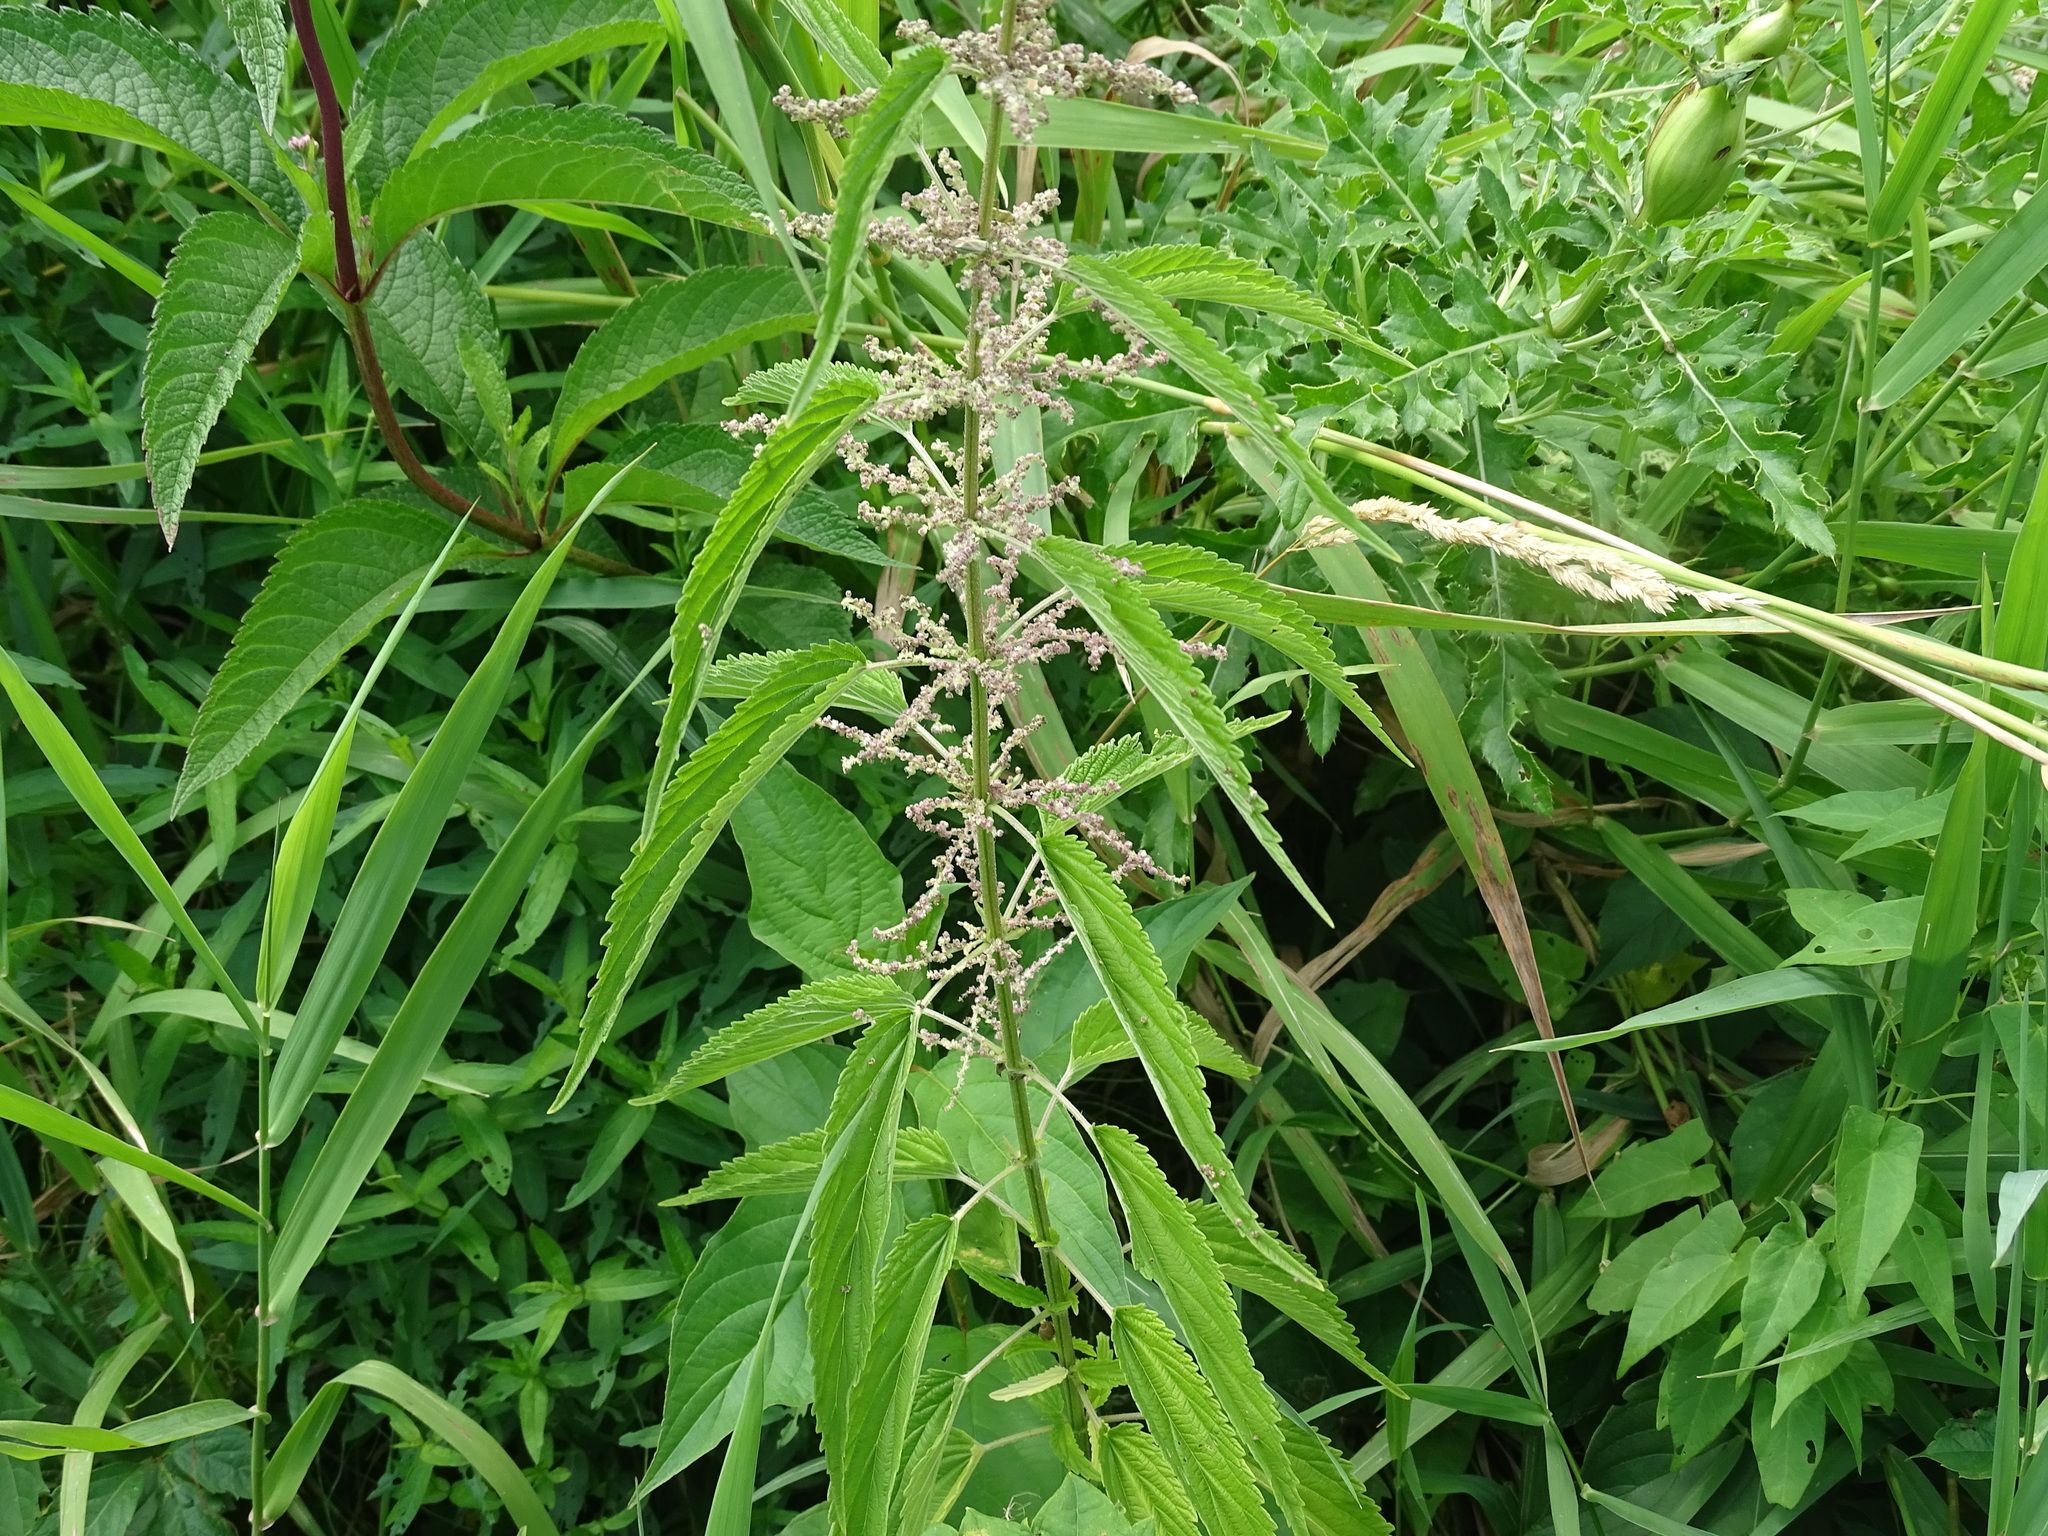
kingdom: Plantae
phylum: Tracheophyta
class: Magnoliopsida
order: Rosales
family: Urticaceae
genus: Urtica
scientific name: Urtica dioica
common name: Common nettle
